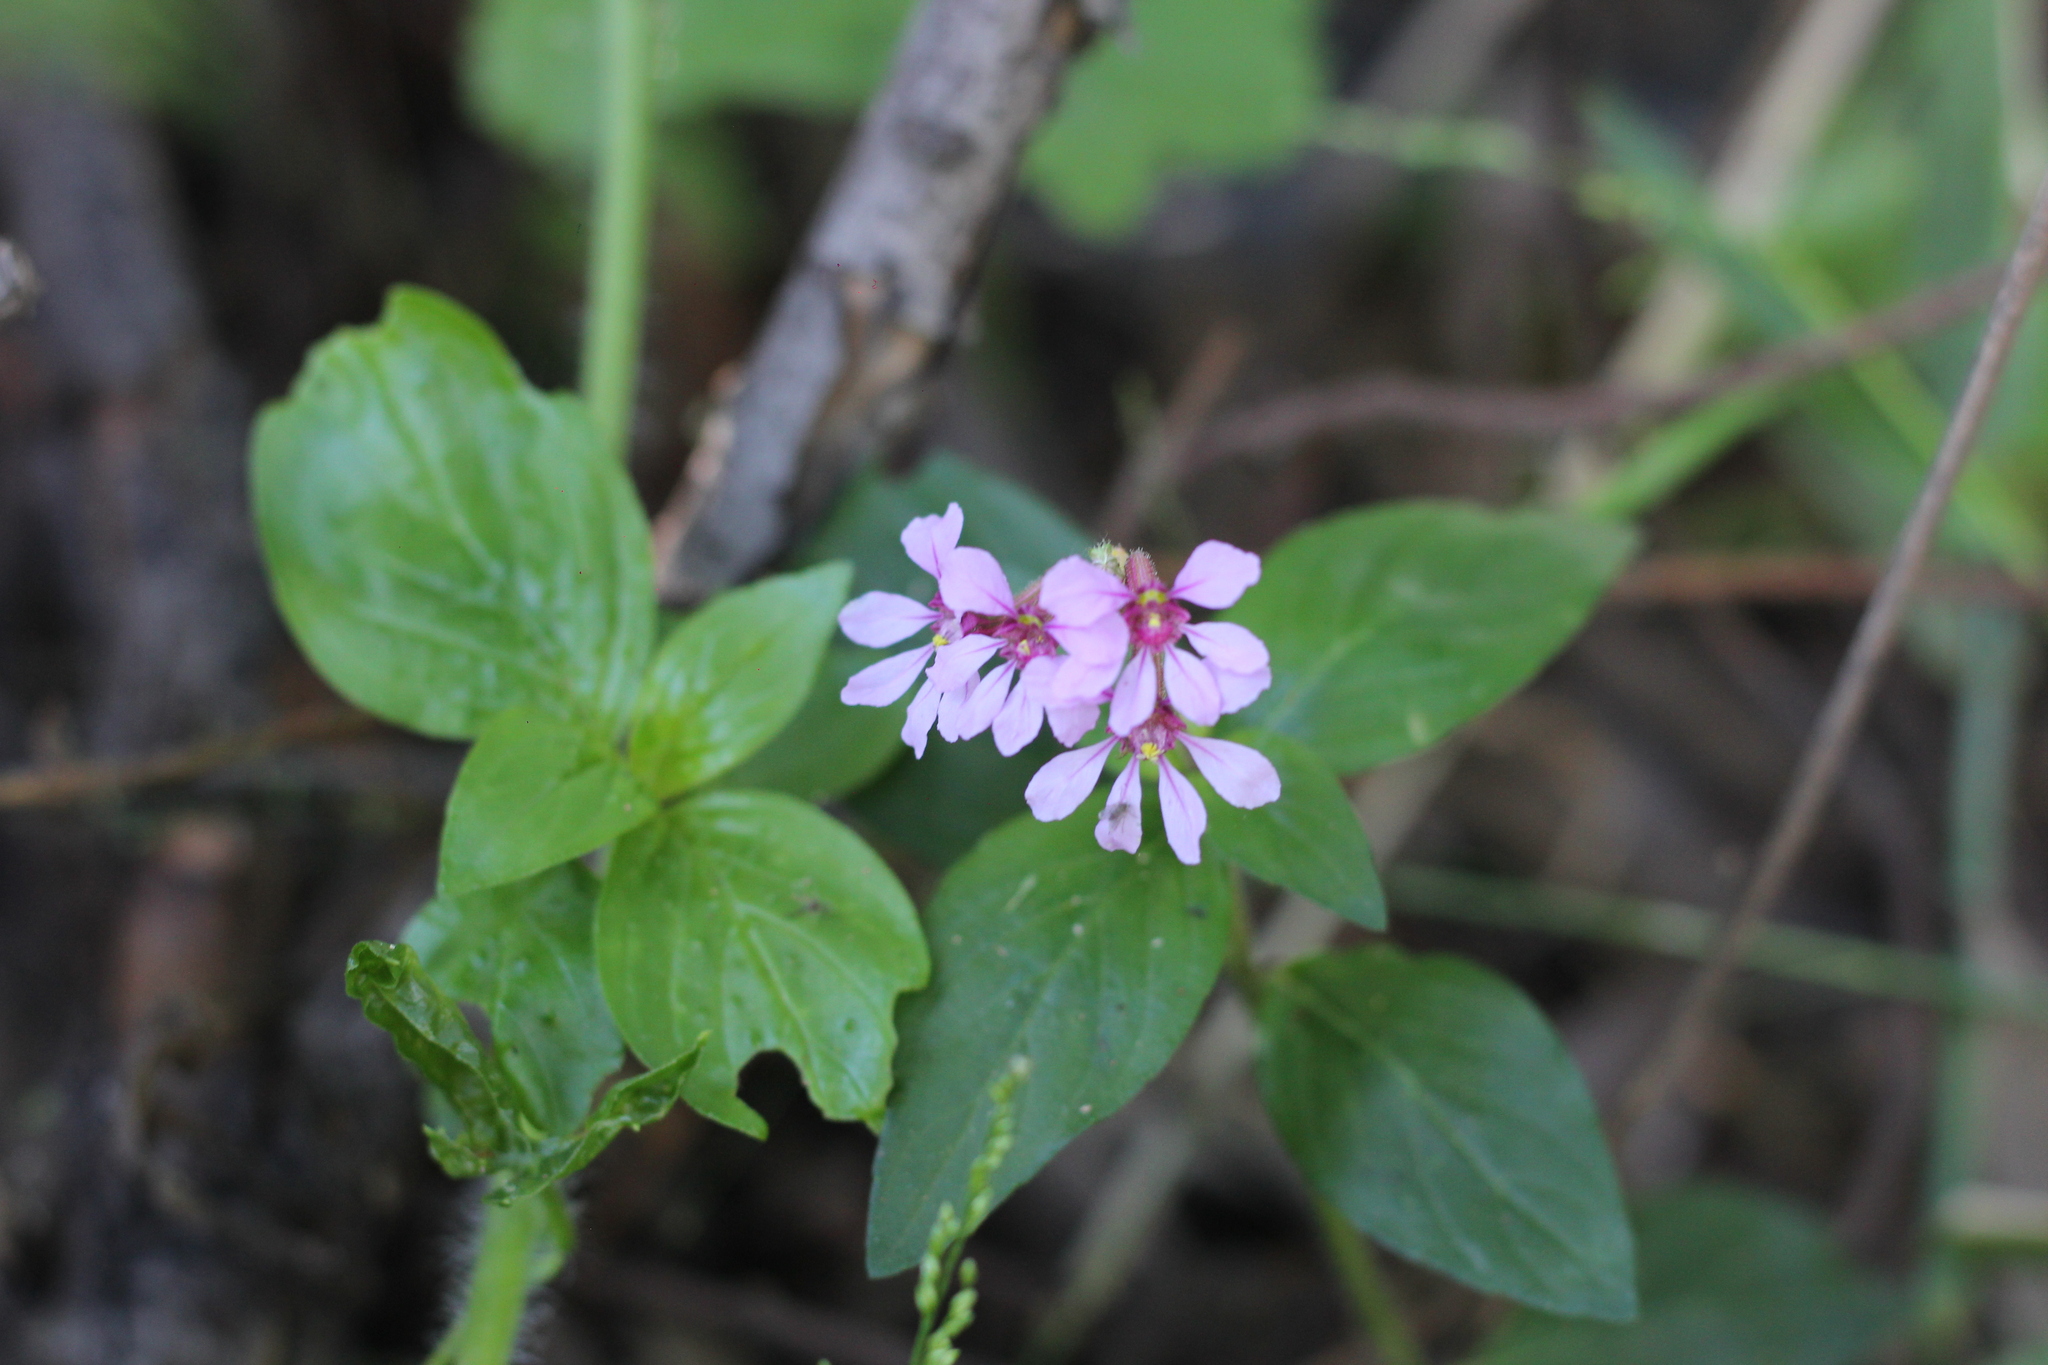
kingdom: Plantae
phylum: Tracheophyta
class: Magnoliopsida
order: Myrtales
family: Lythraceae
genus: Cuphea
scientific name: Cuphea racemosa
